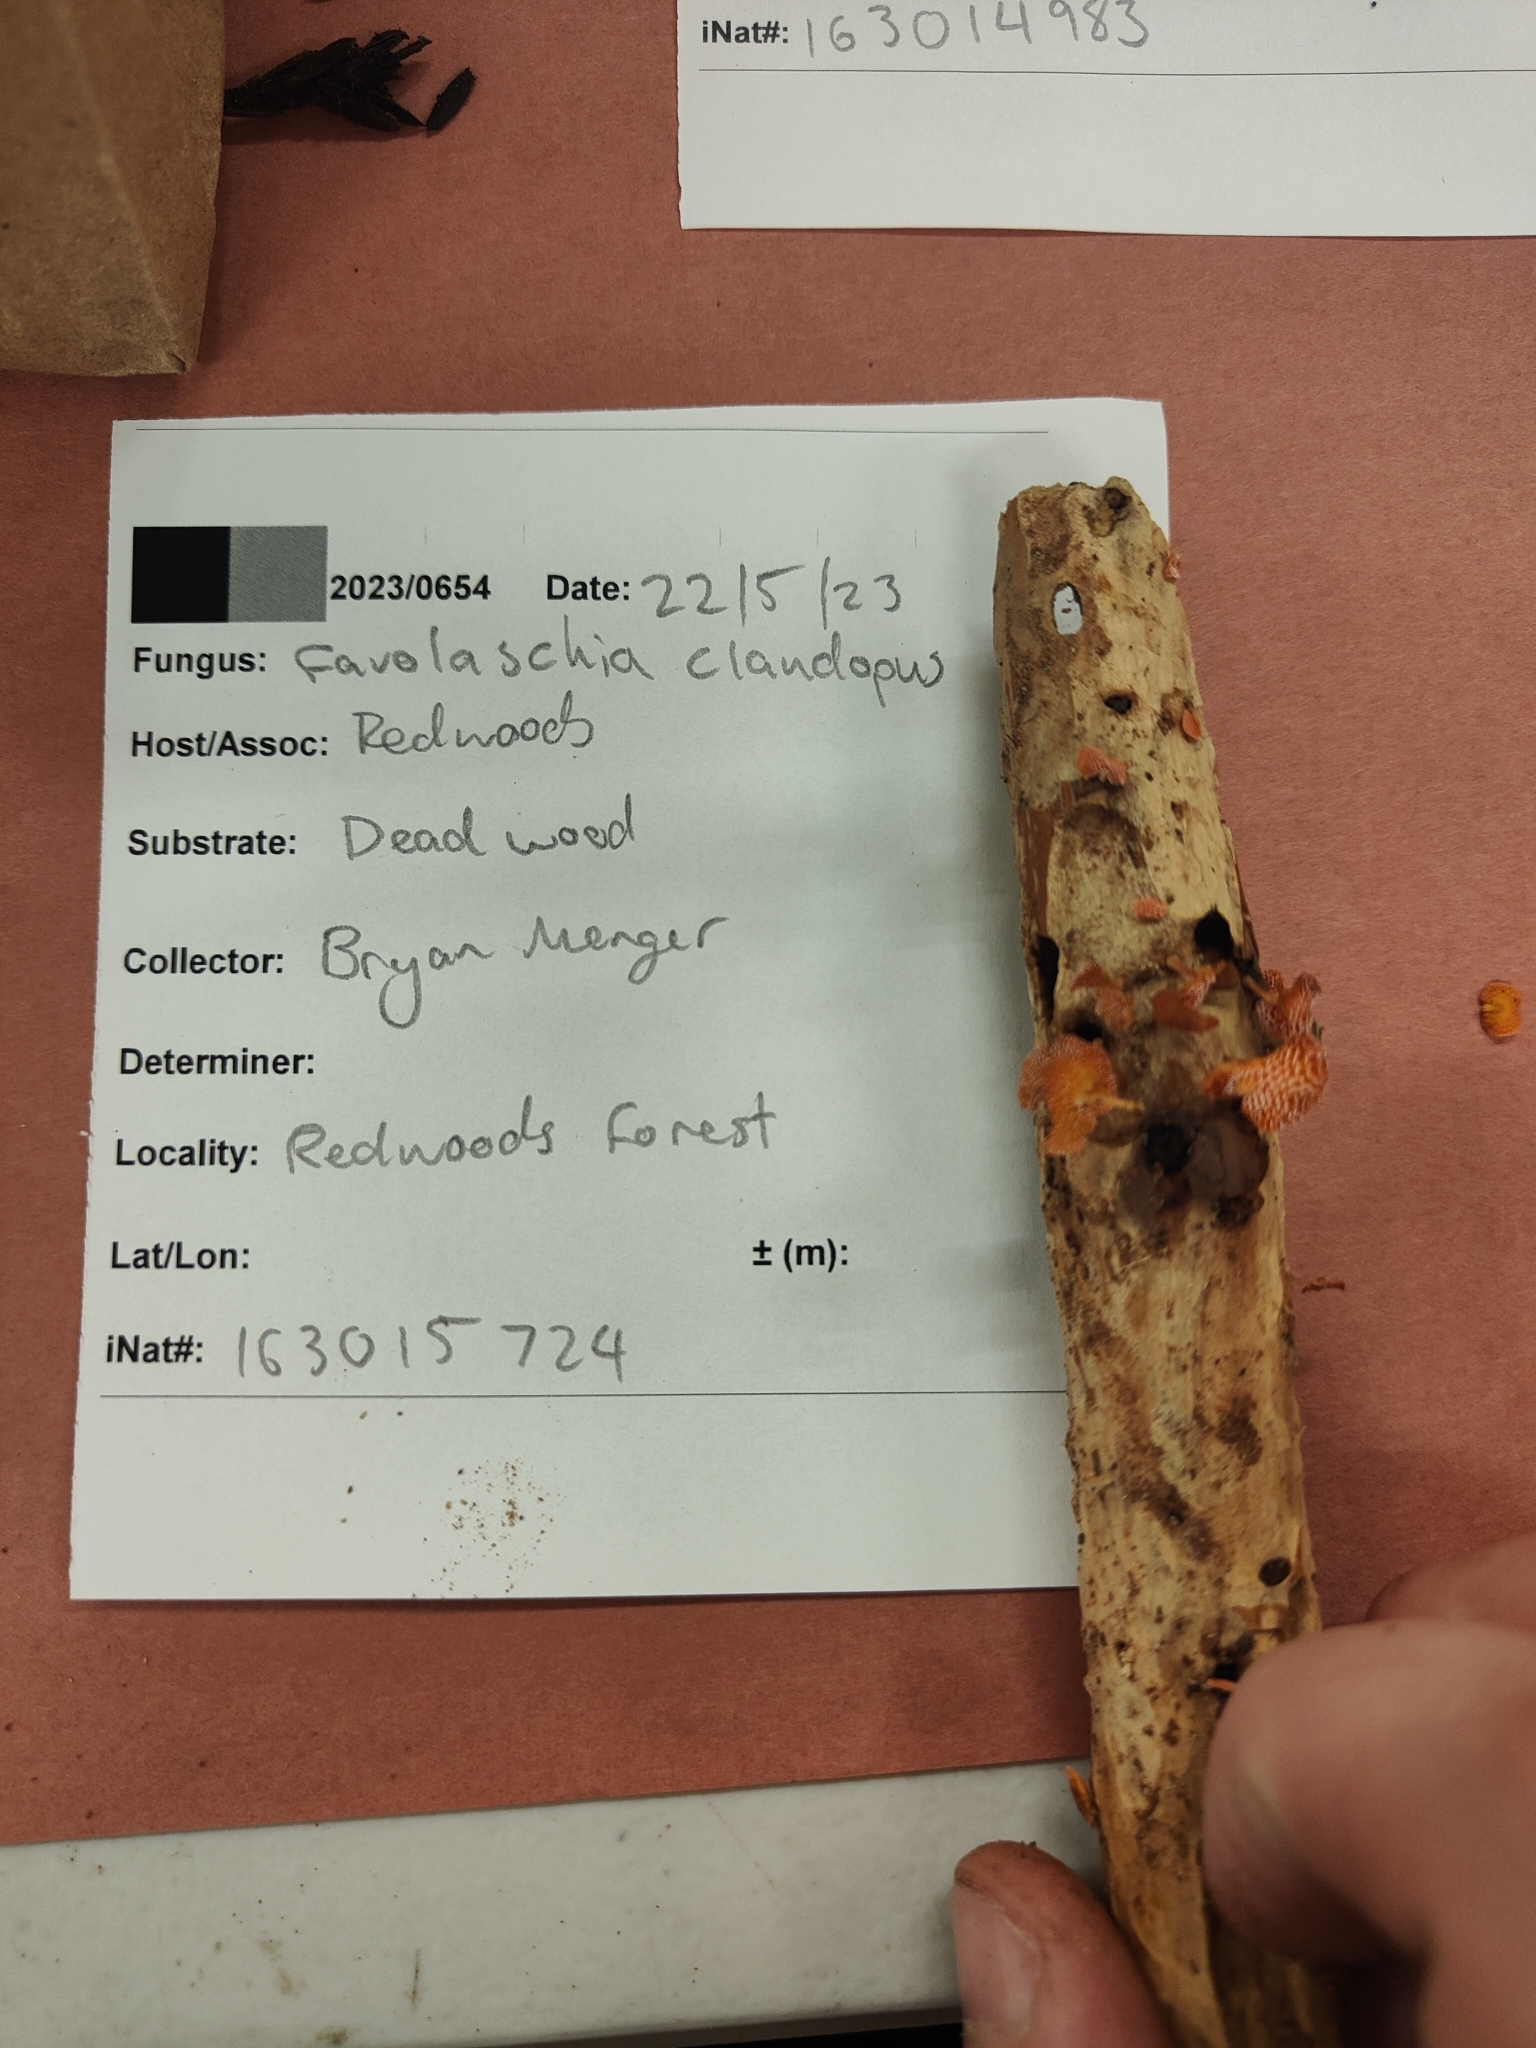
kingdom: Fungi
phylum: Basidiomycota
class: Agaricomycetes
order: Agaricales
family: Mycenaceae
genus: Favolaschia
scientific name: Favolaschia claudopus
